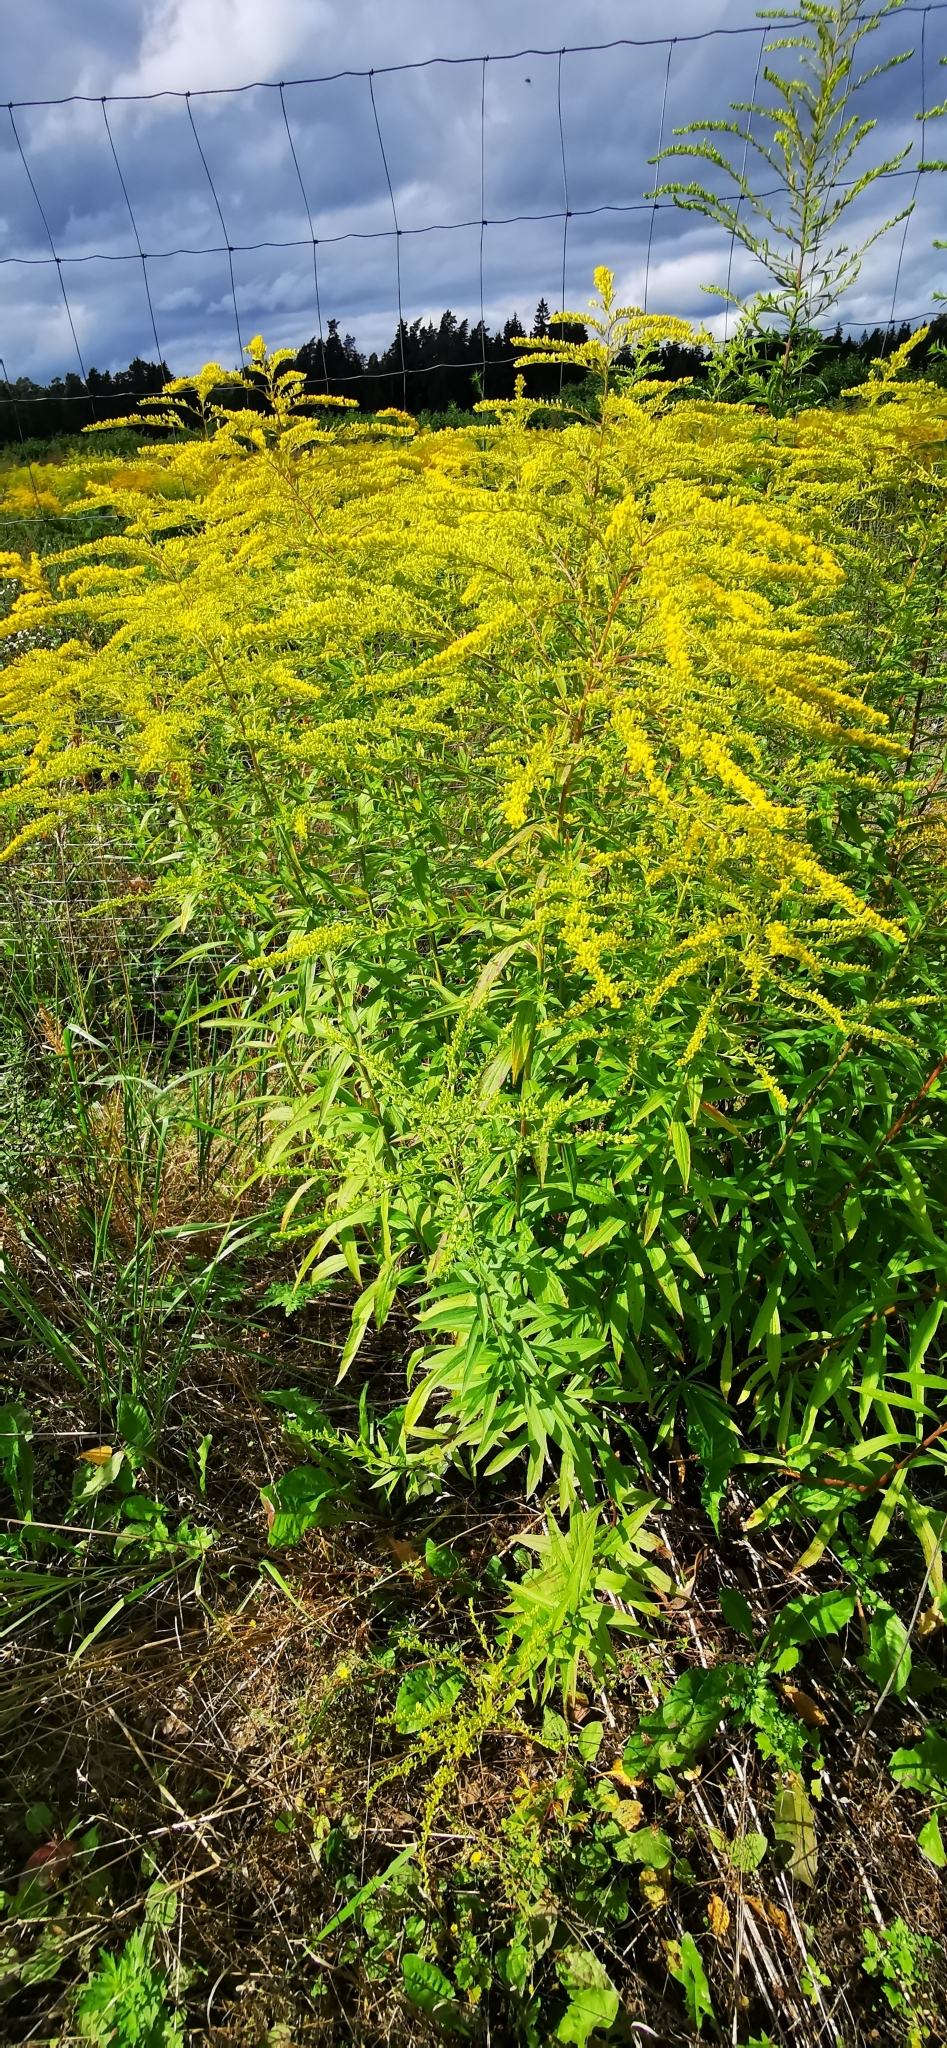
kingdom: Plantae
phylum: Tracheophyta
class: Magnoliopsida
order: Asterales
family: Asteraceae
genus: Solidago
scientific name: Solidago canadensis
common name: Canada goldenrod
